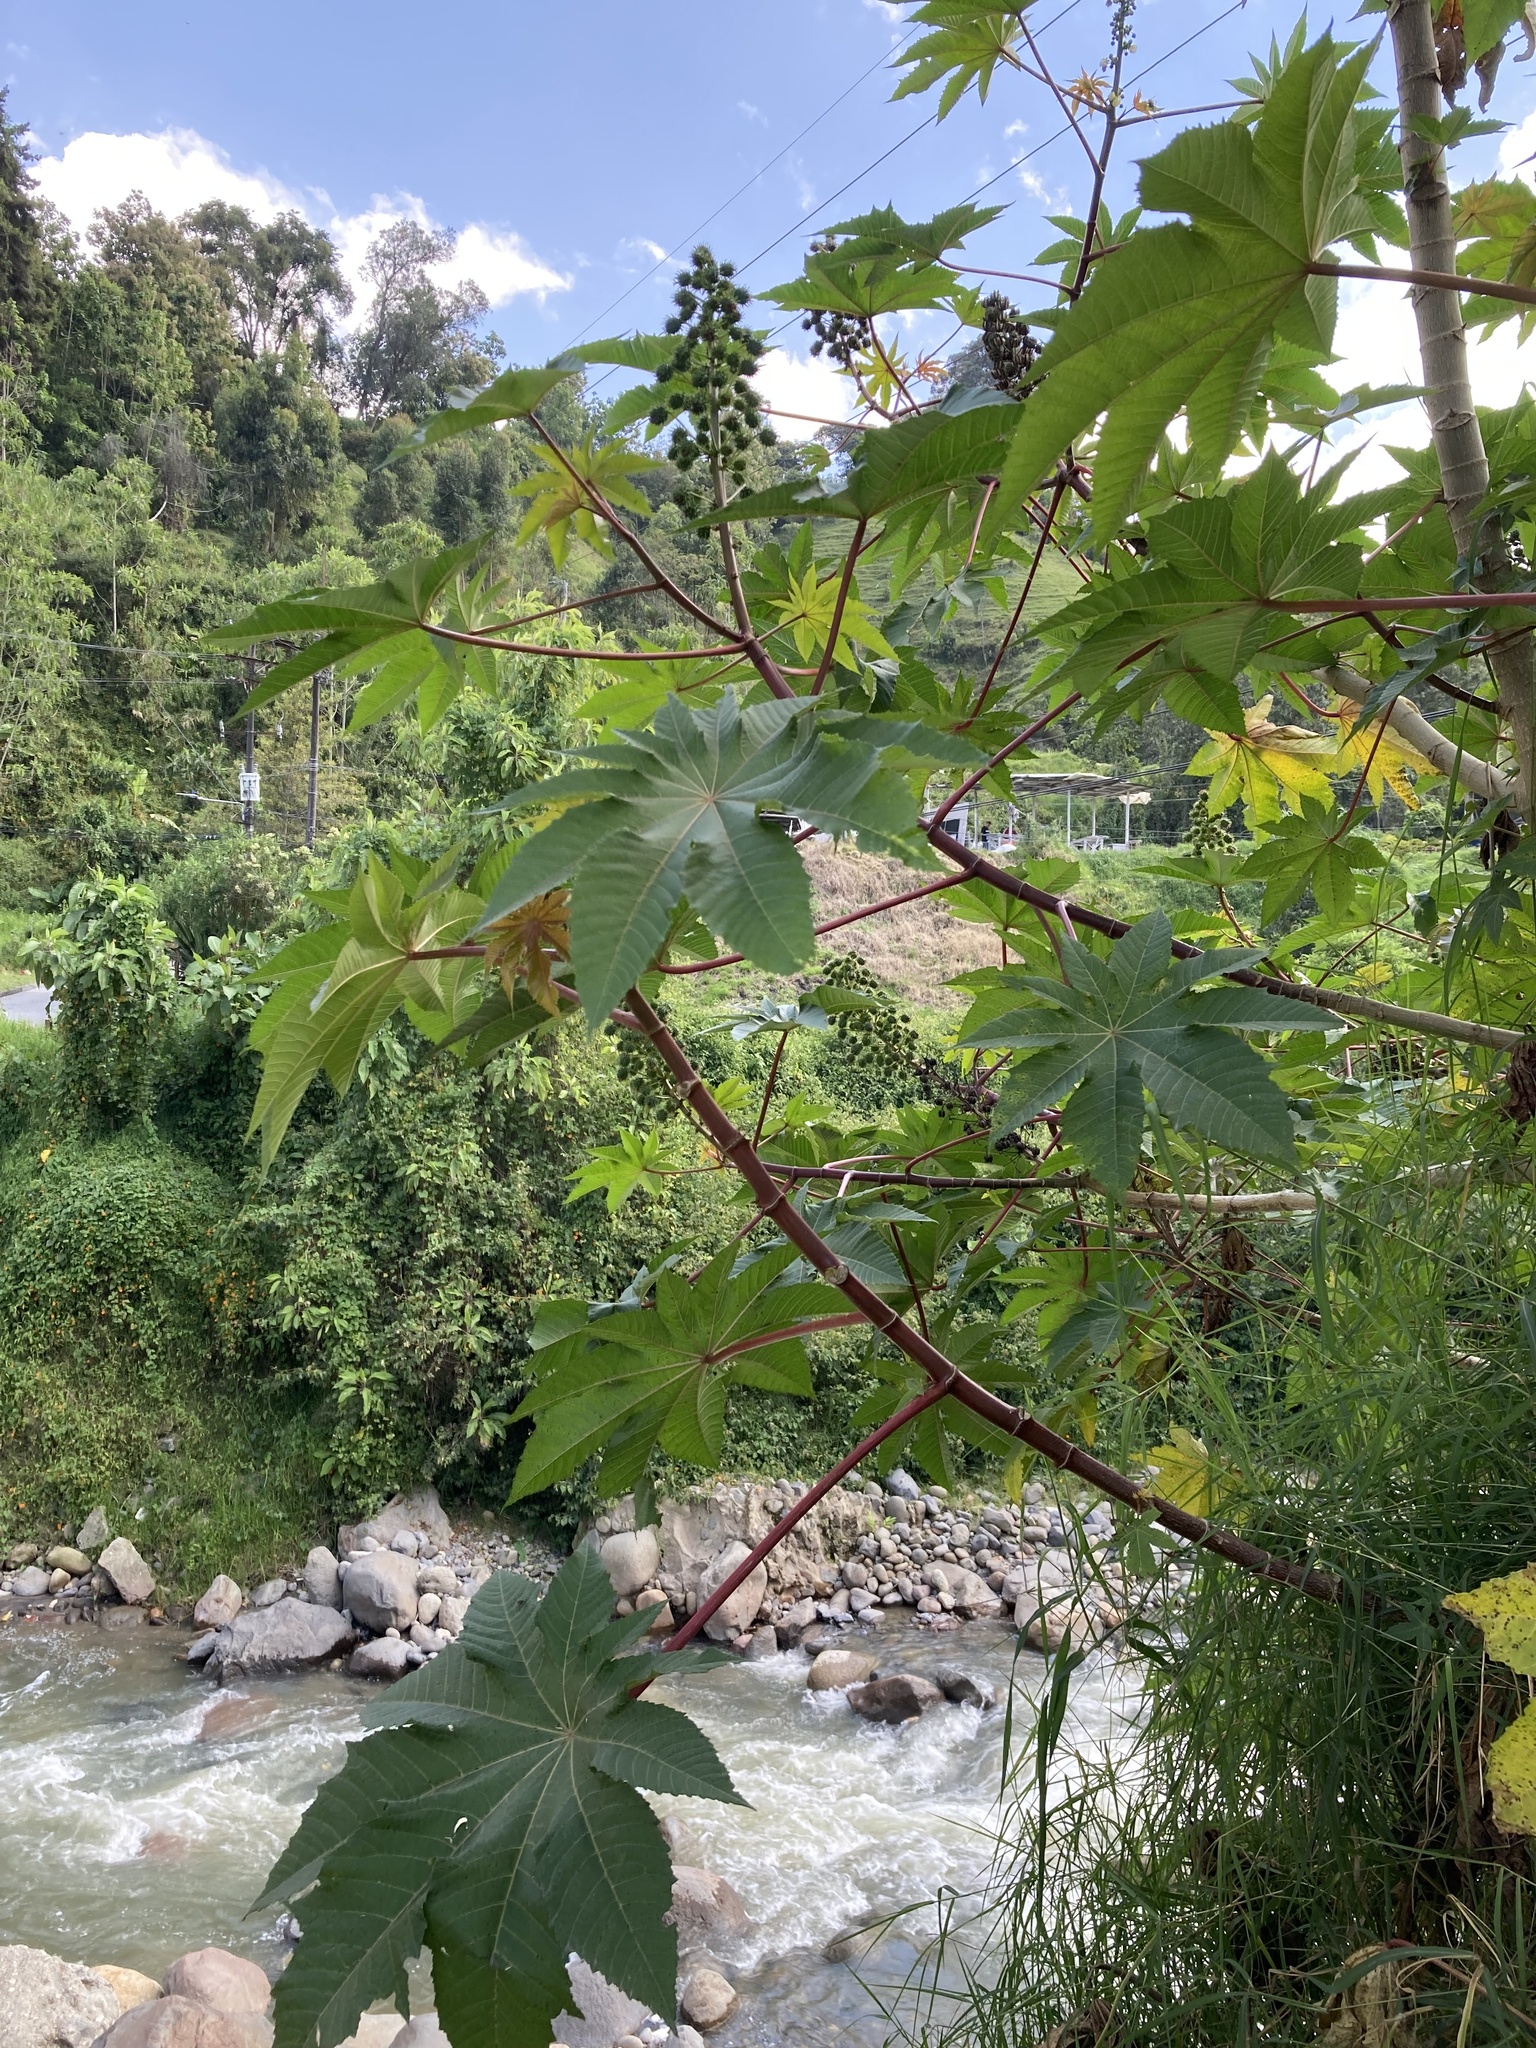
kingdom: Plantae
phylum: Tracheophyta
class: Magnoliopsida
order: Malpighiales
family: Euphorbiaceae
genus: Ricinus
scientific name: Ricinus communis
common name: Castor-oil-plant
